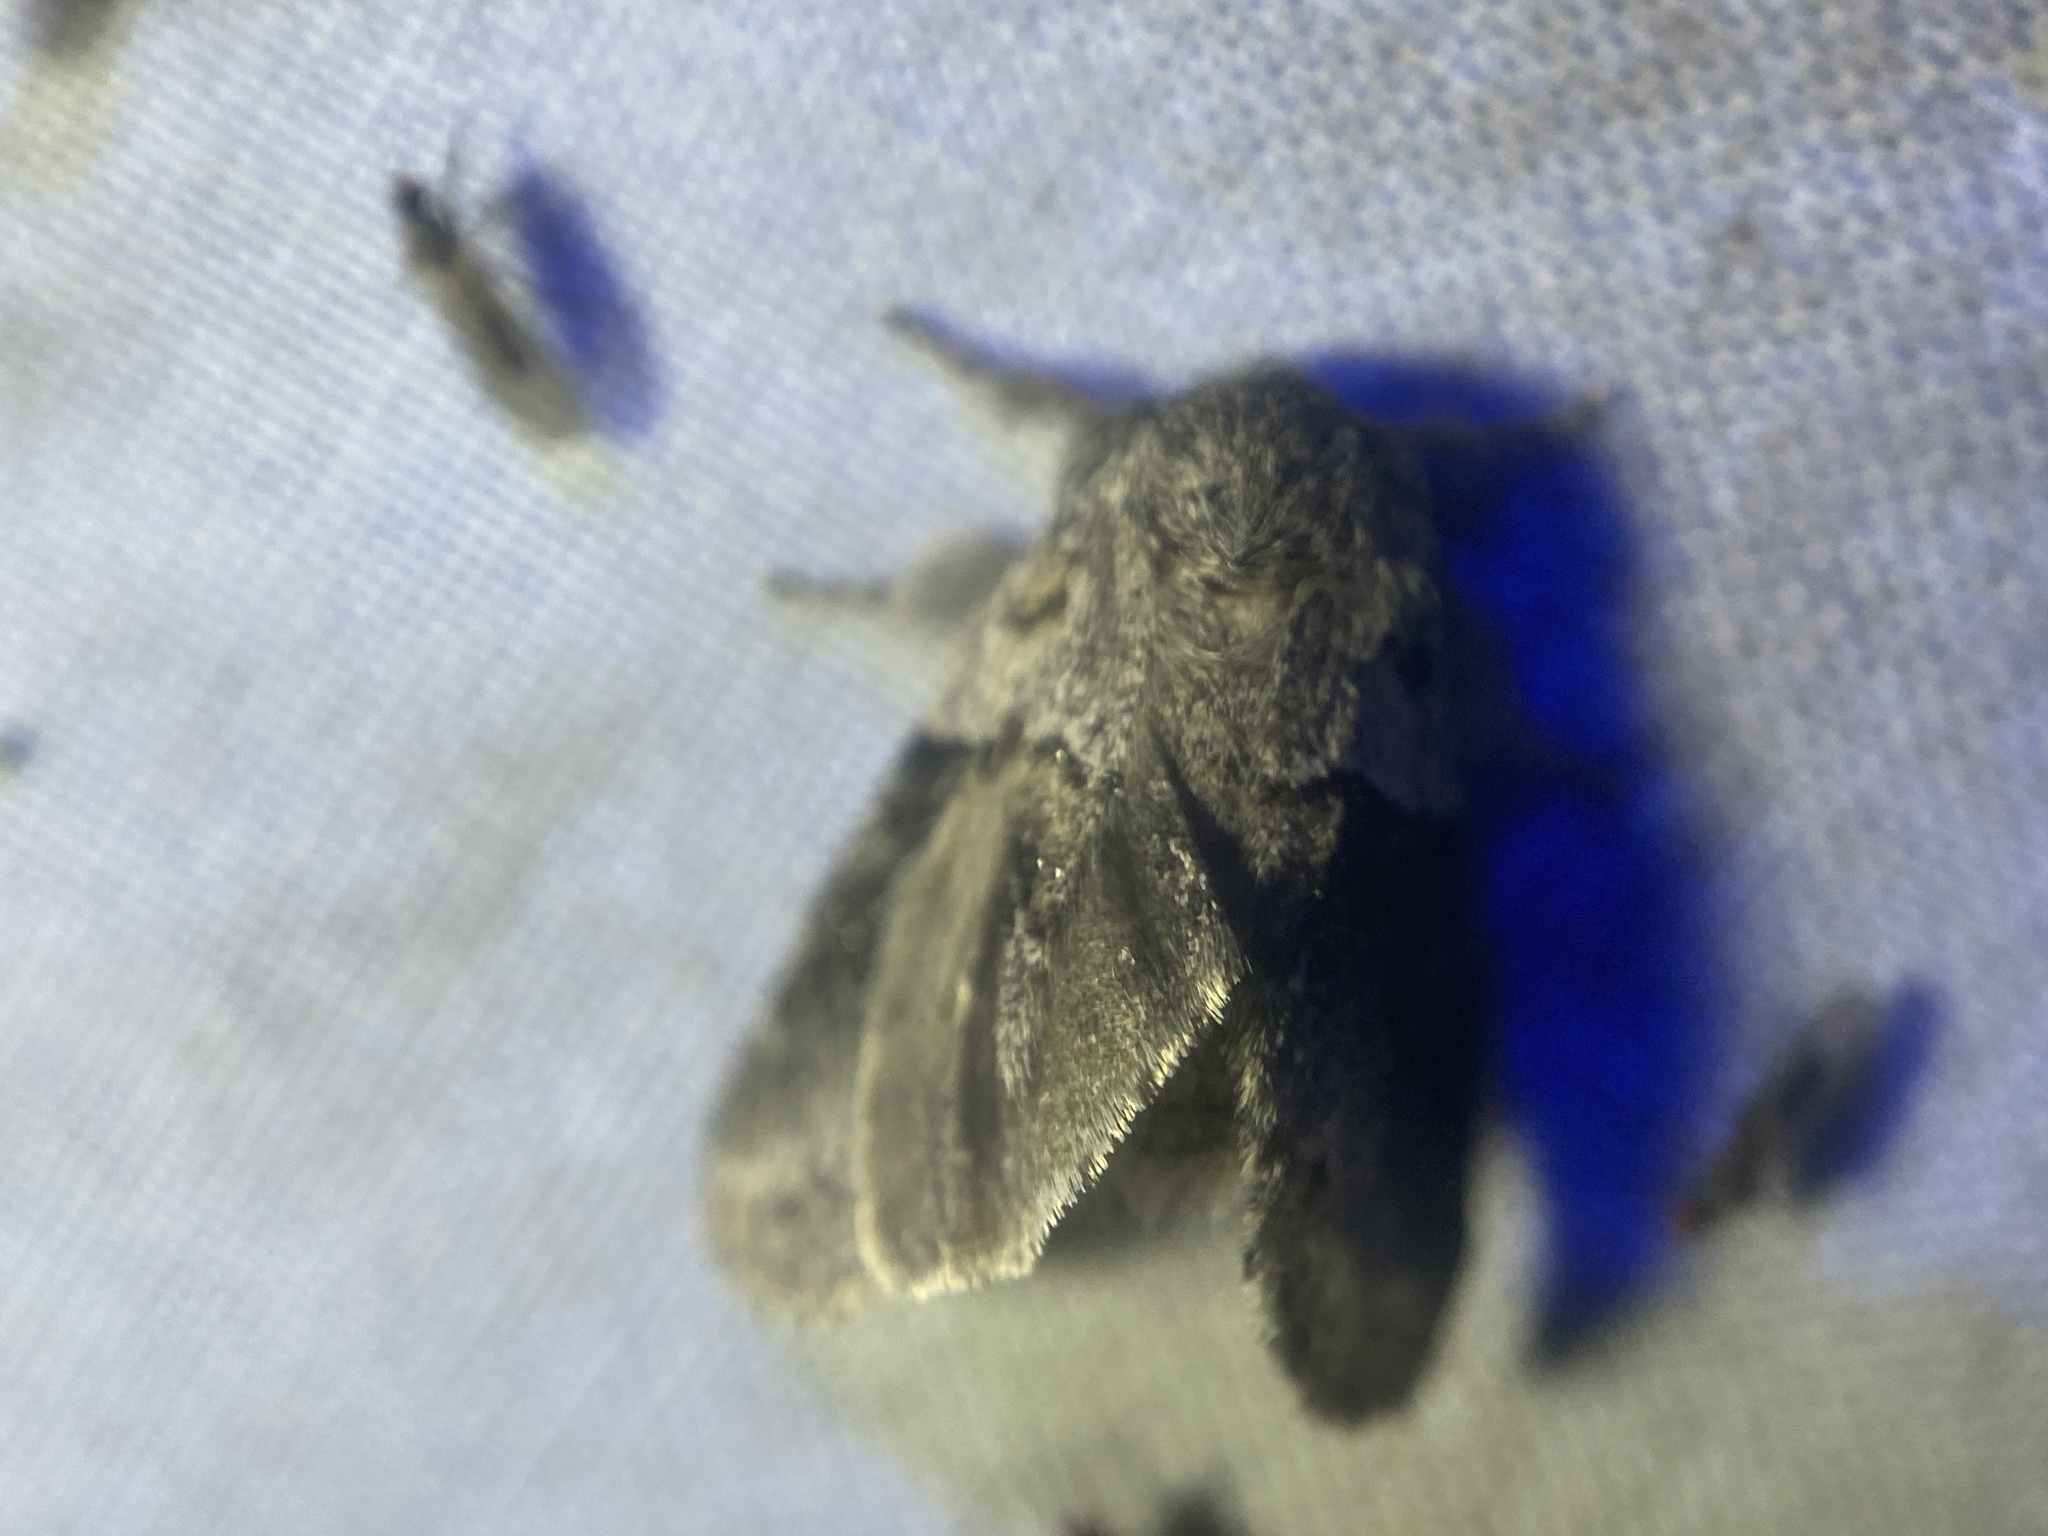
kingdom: Animalia
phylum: Arthropoda
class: Insecta
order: Lepidoptera
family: Notodontidae
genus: Gluphisia
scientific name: Gluphisia septentrionis
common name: Common gluphisia
